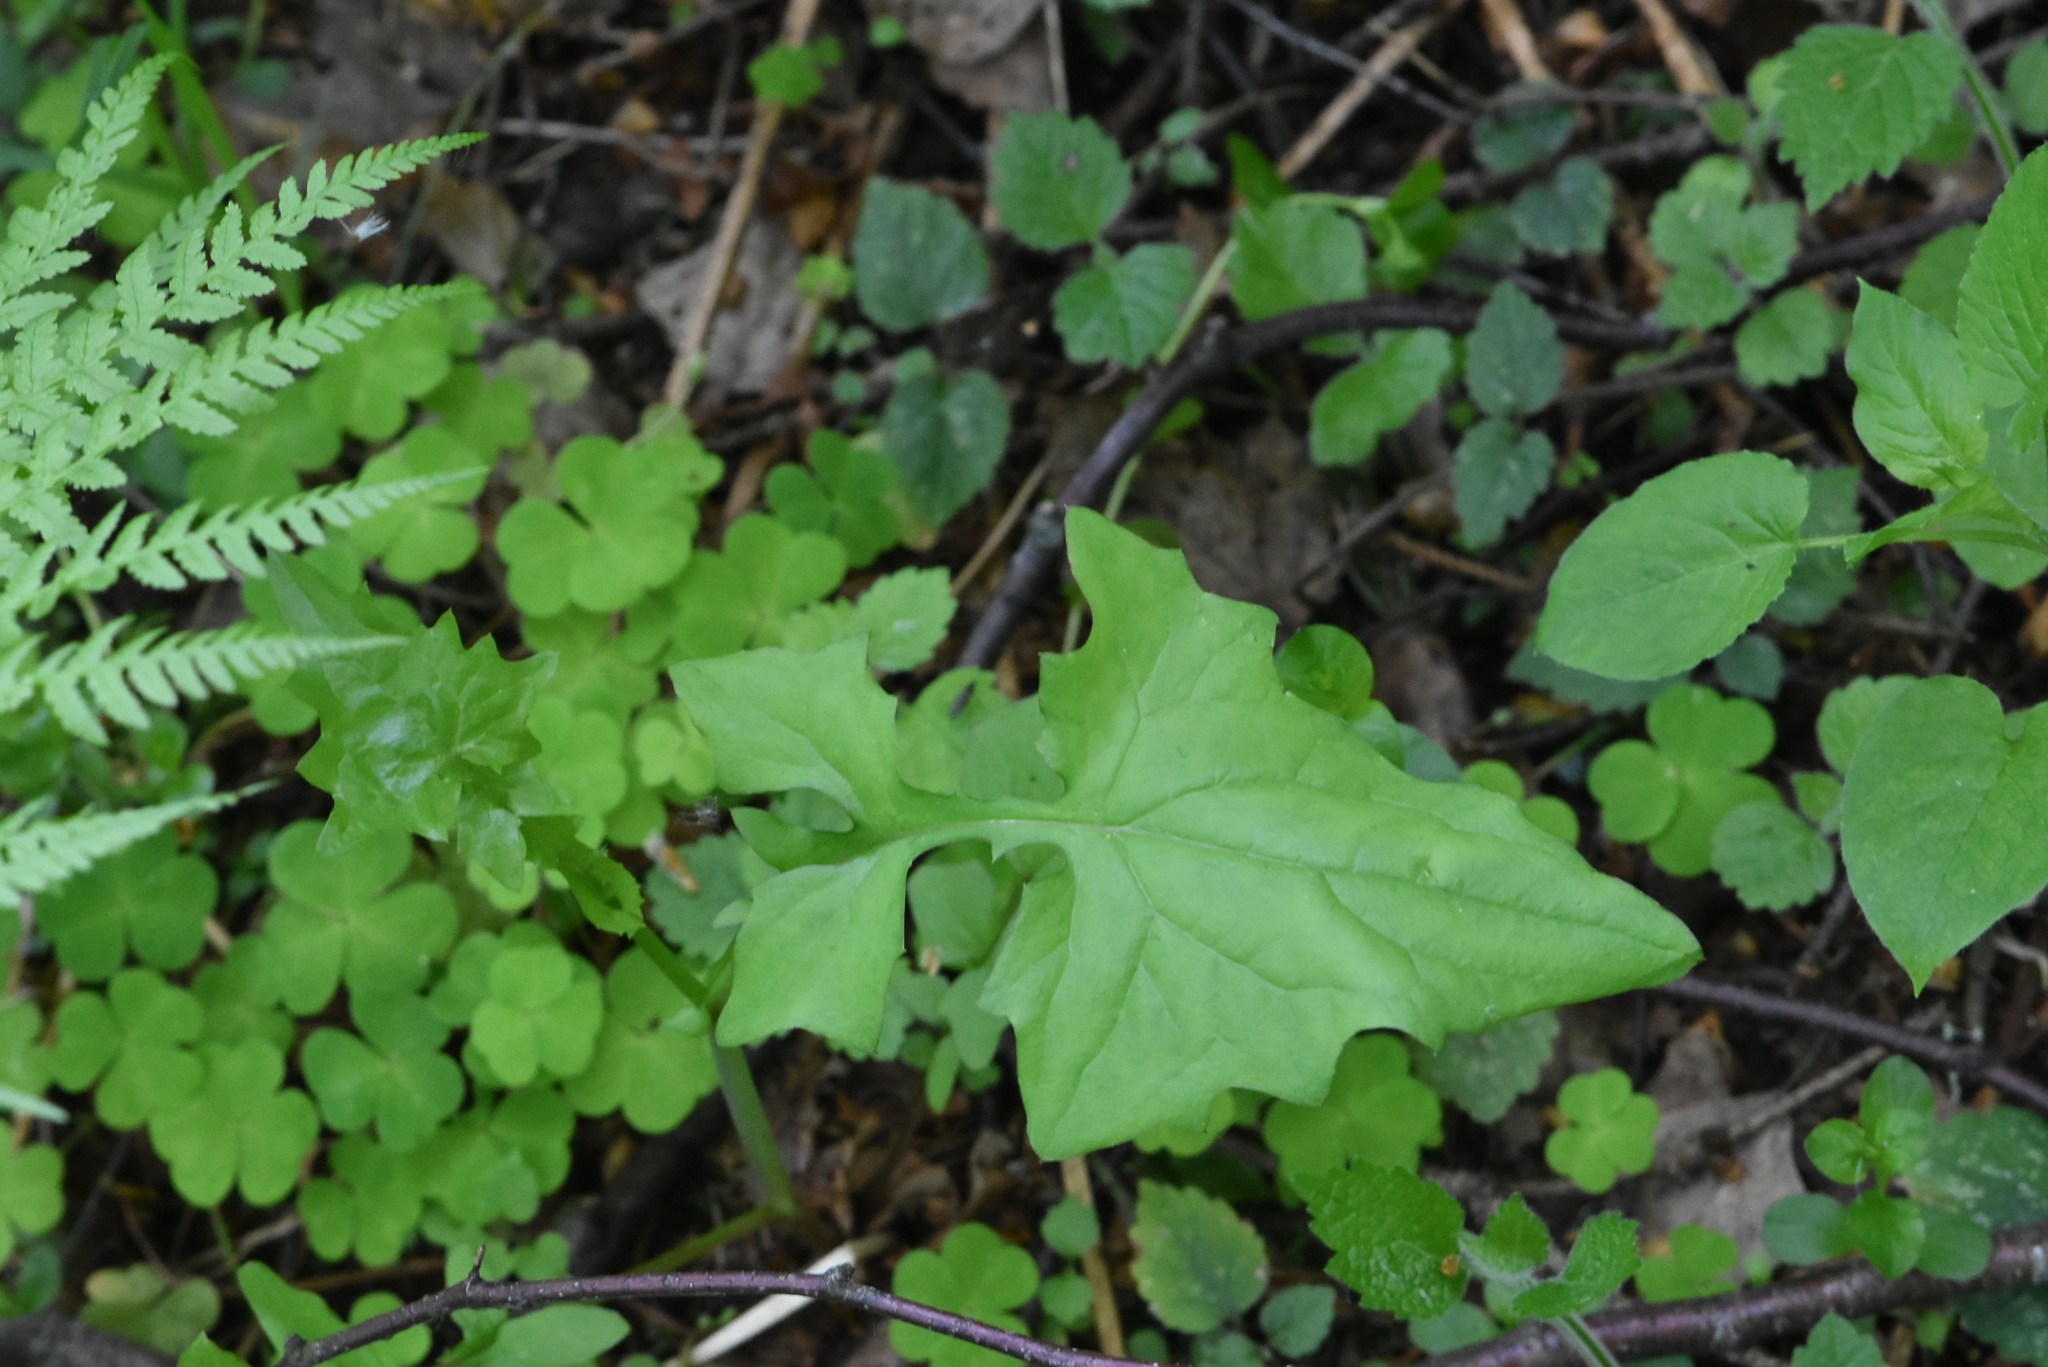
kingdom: Plantae
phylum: Tracheophyta
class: Magnoliopsida
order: Asterales
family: Asteraceae
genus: Mycelis
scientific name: Mycelis muralis
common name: Wall lettuce
